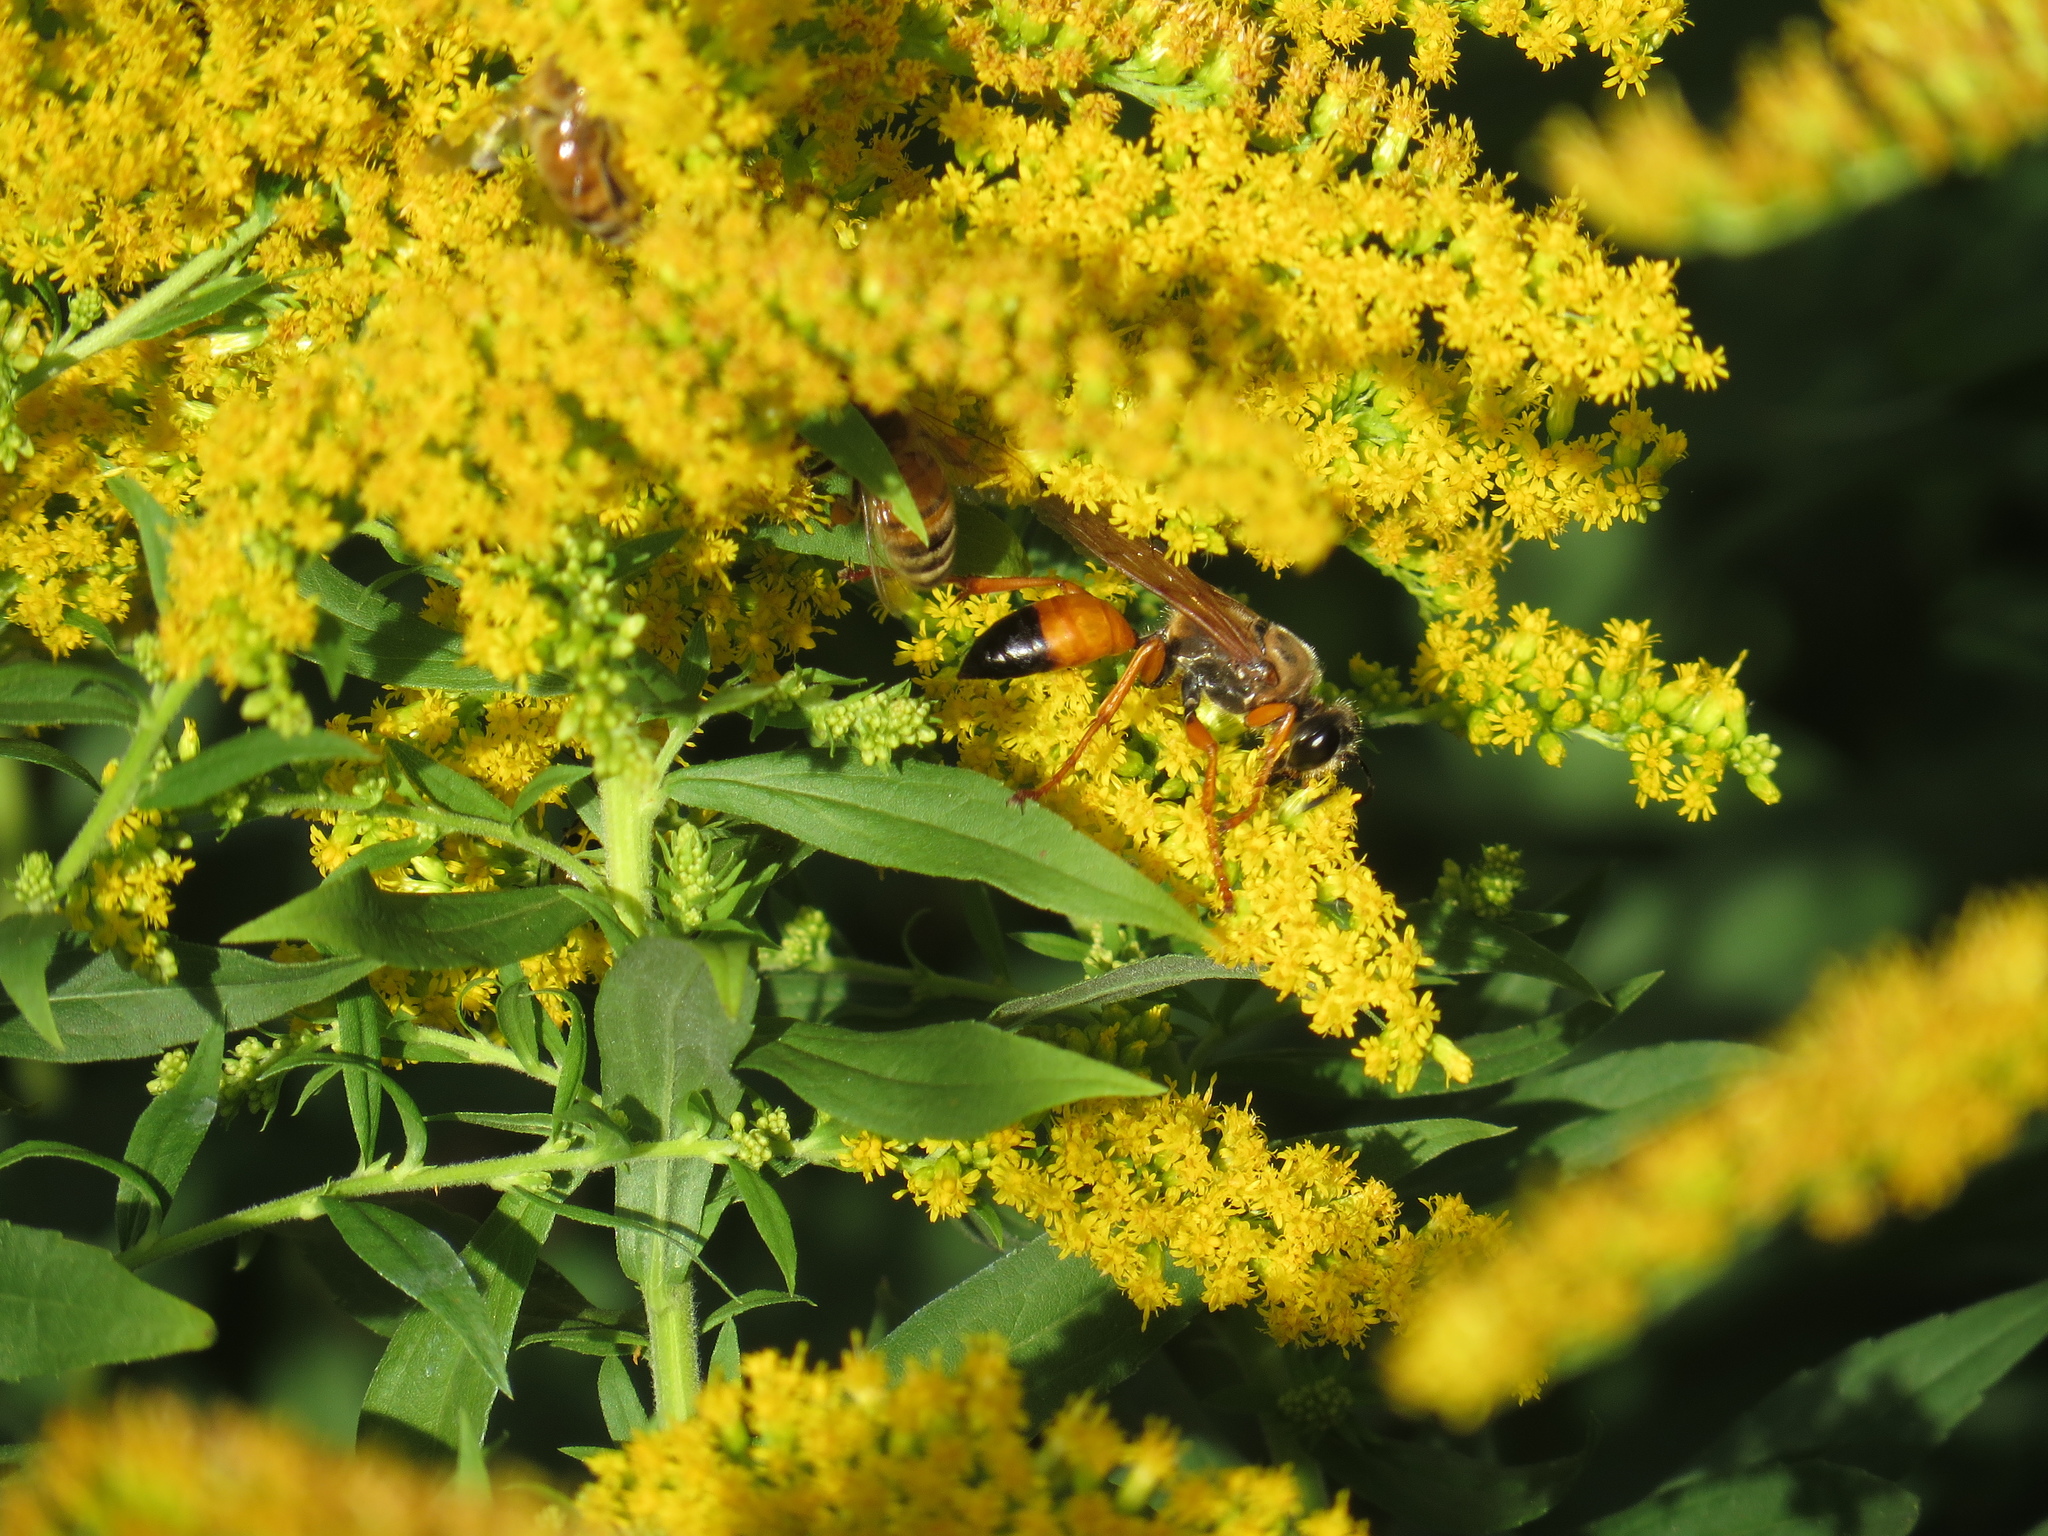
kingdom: Animalia
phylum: Arthropoda
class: Insecta
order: Hymenoptera
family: Sphecidae
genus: Sphex
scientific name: Sphex ichneumoneus
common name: Great golden digger wasp
